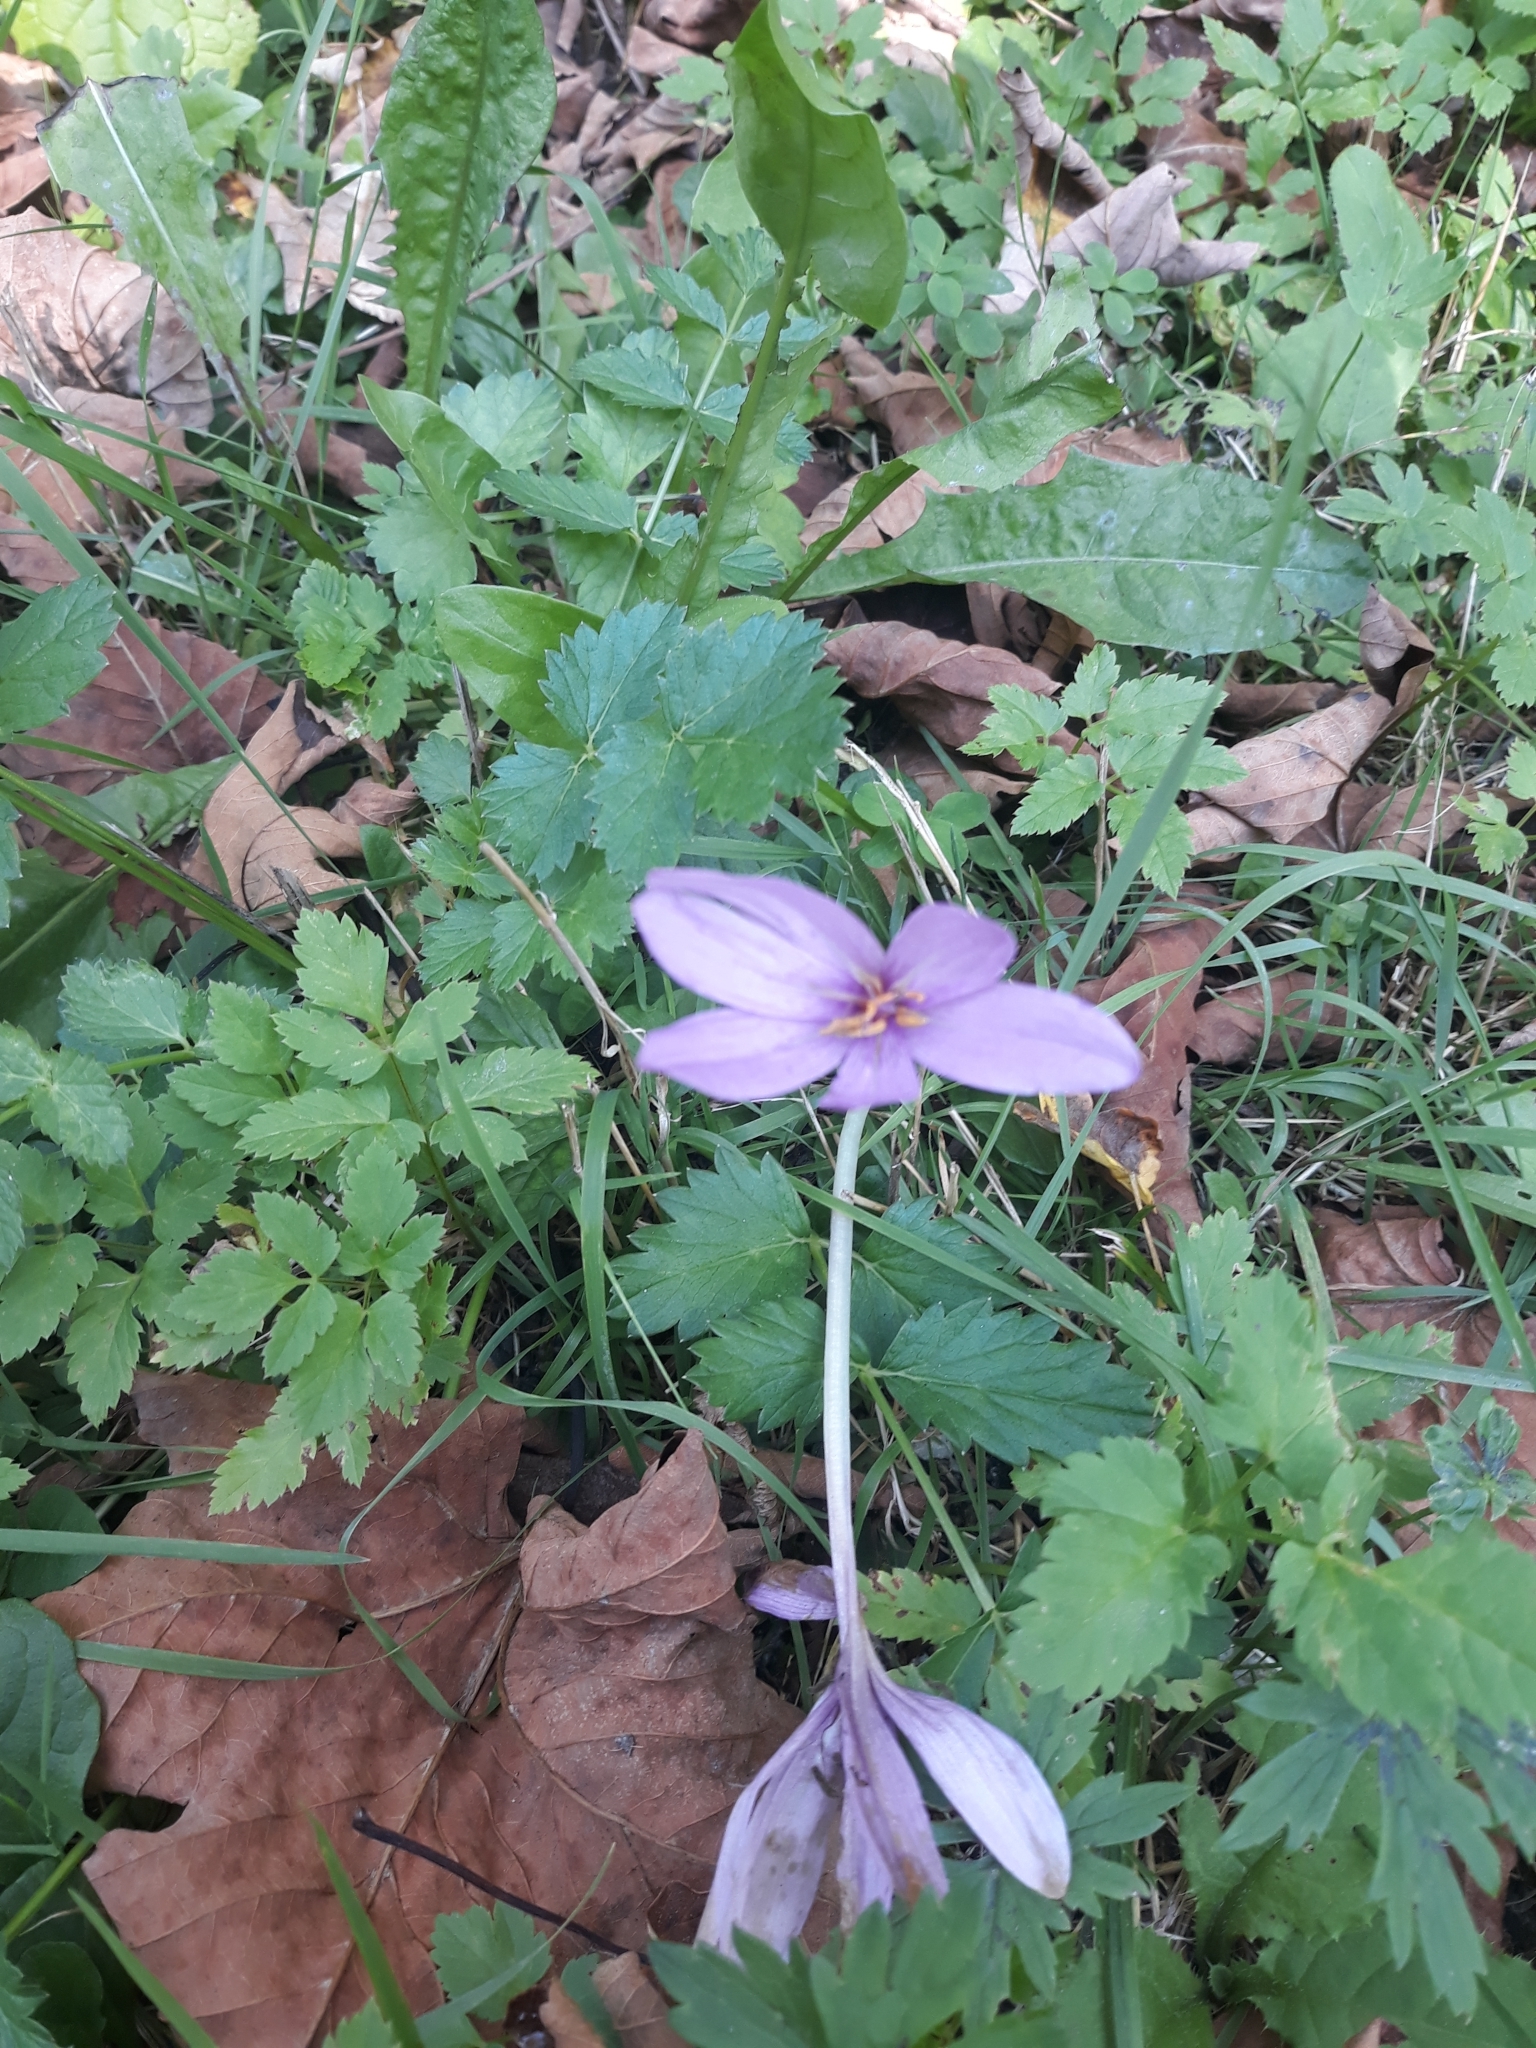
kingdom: Plantae
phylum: Tracheophyta
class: Liliopsida
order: Liliales
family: Colchicaceae
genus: Colchicum
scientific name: Colchicum autumnale
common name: Autumn crocus
